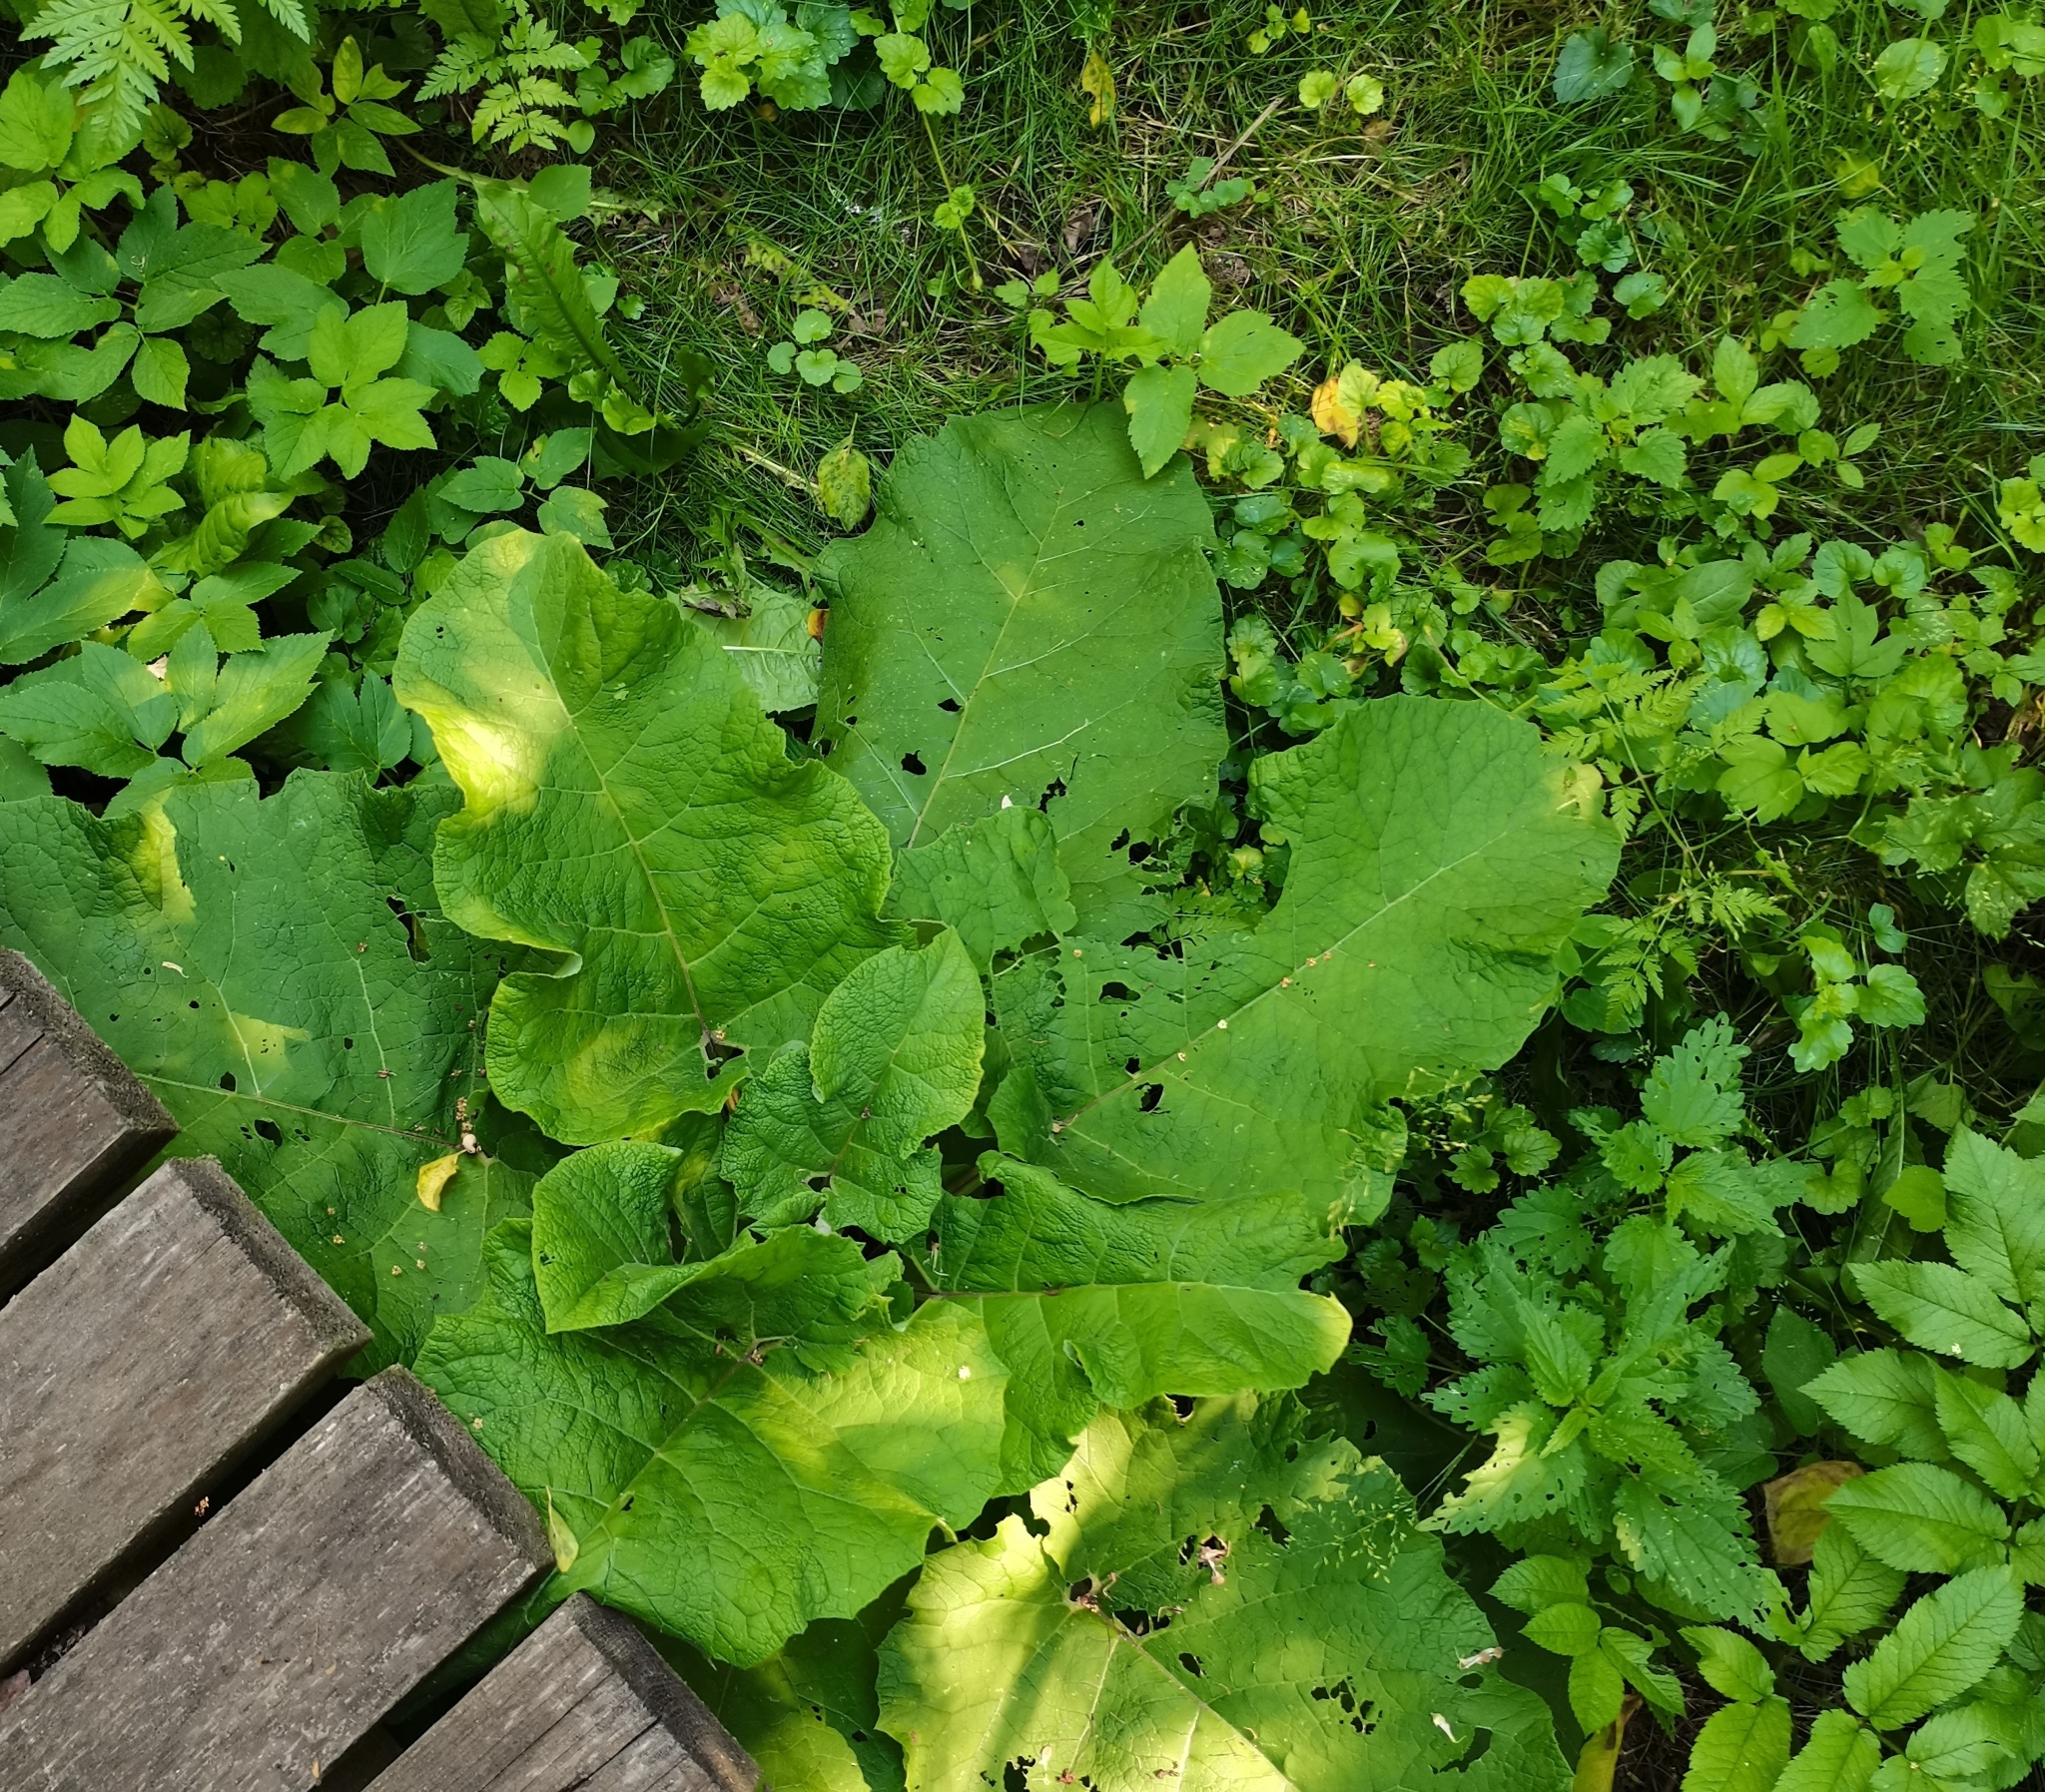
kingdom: Plantae
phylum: Tracheophyta
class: Magnoliopsida
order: Asterales
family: Asteraceae
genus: Arctium
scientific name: Arctium lappa
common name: Greater burdock
